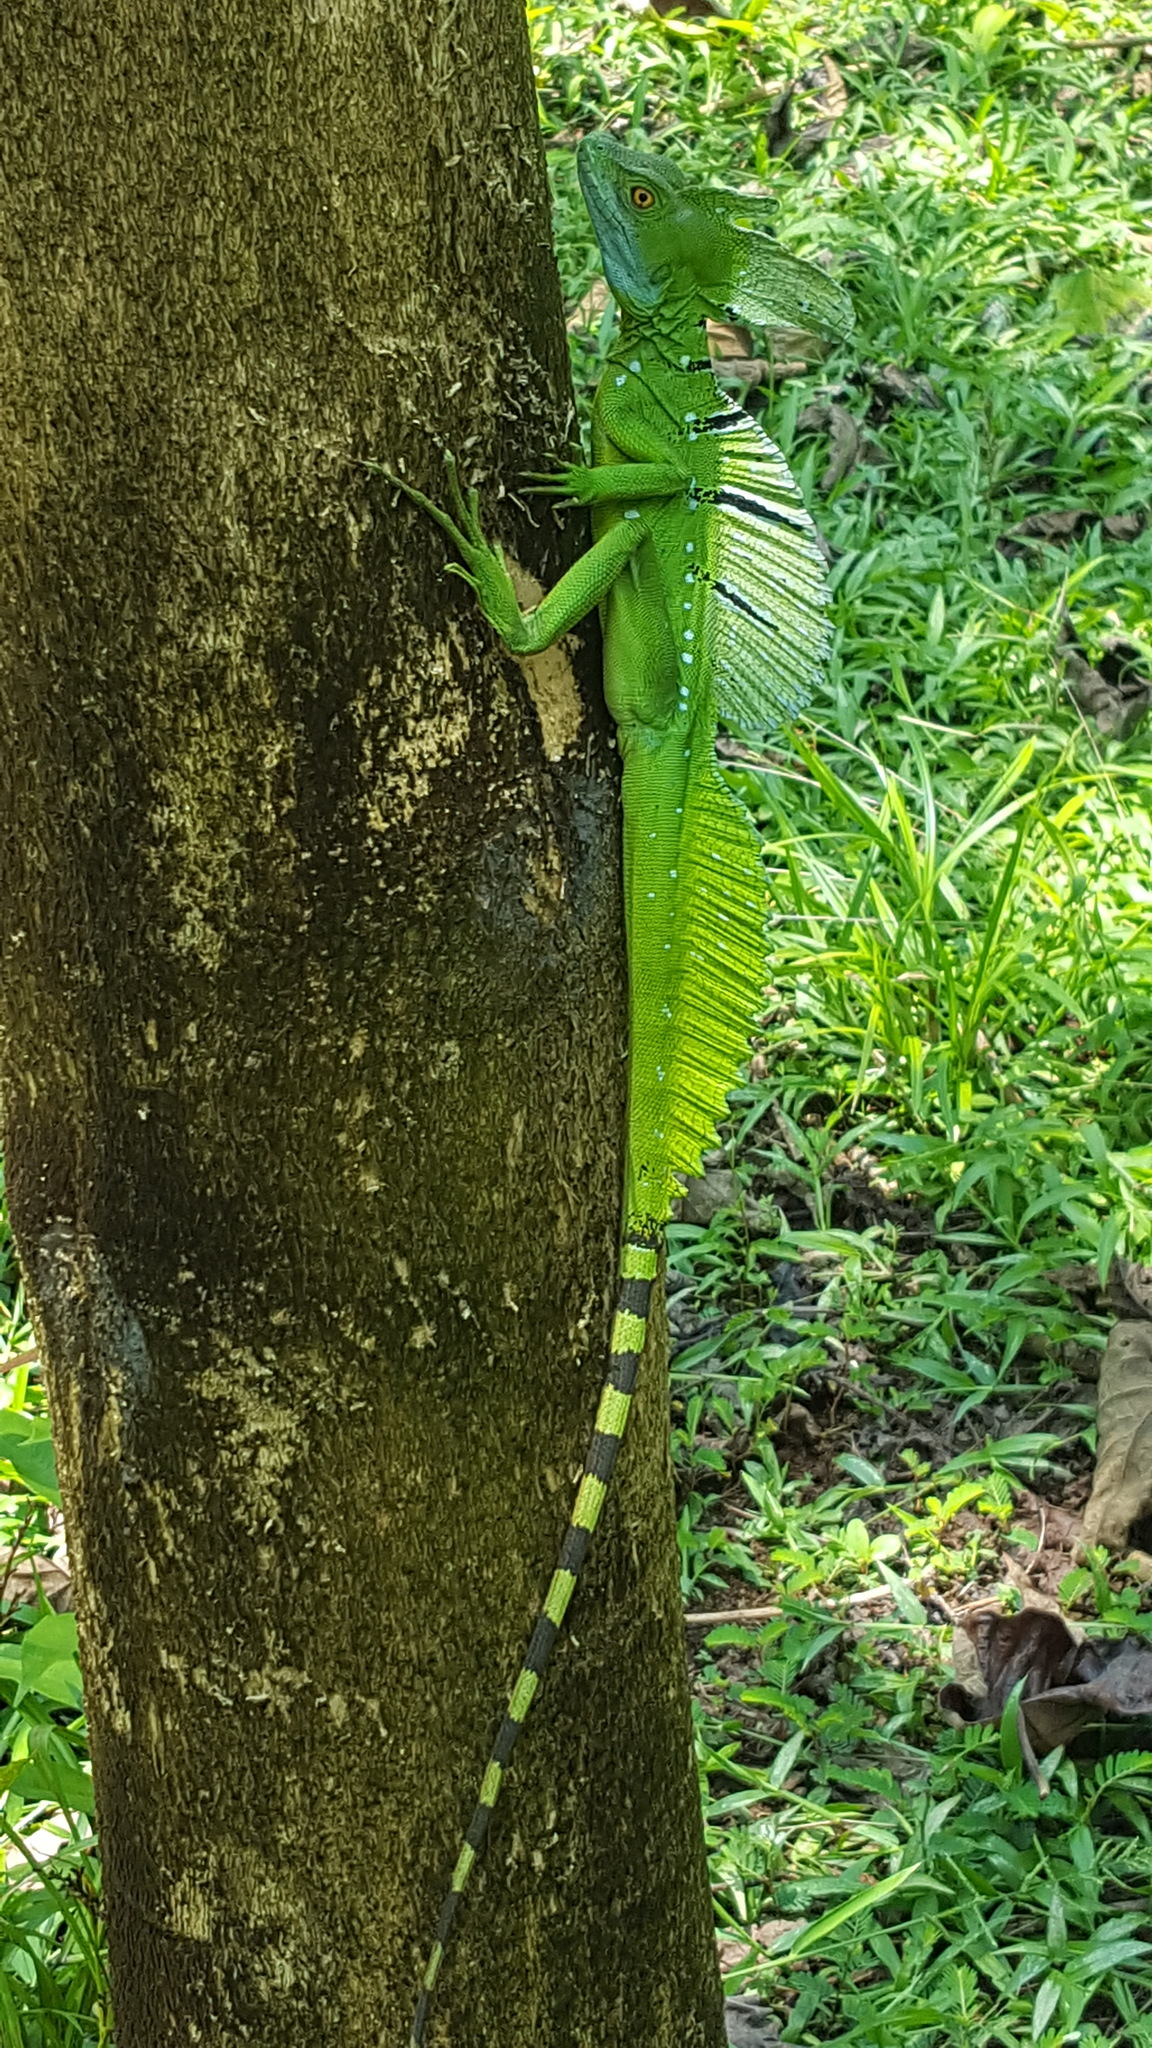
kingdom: Animalia
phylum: Chordata
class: Squamata
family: Corytophanidae
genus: Basiliscus
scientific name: Basiliscus plumifrons
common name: Green basilisk
